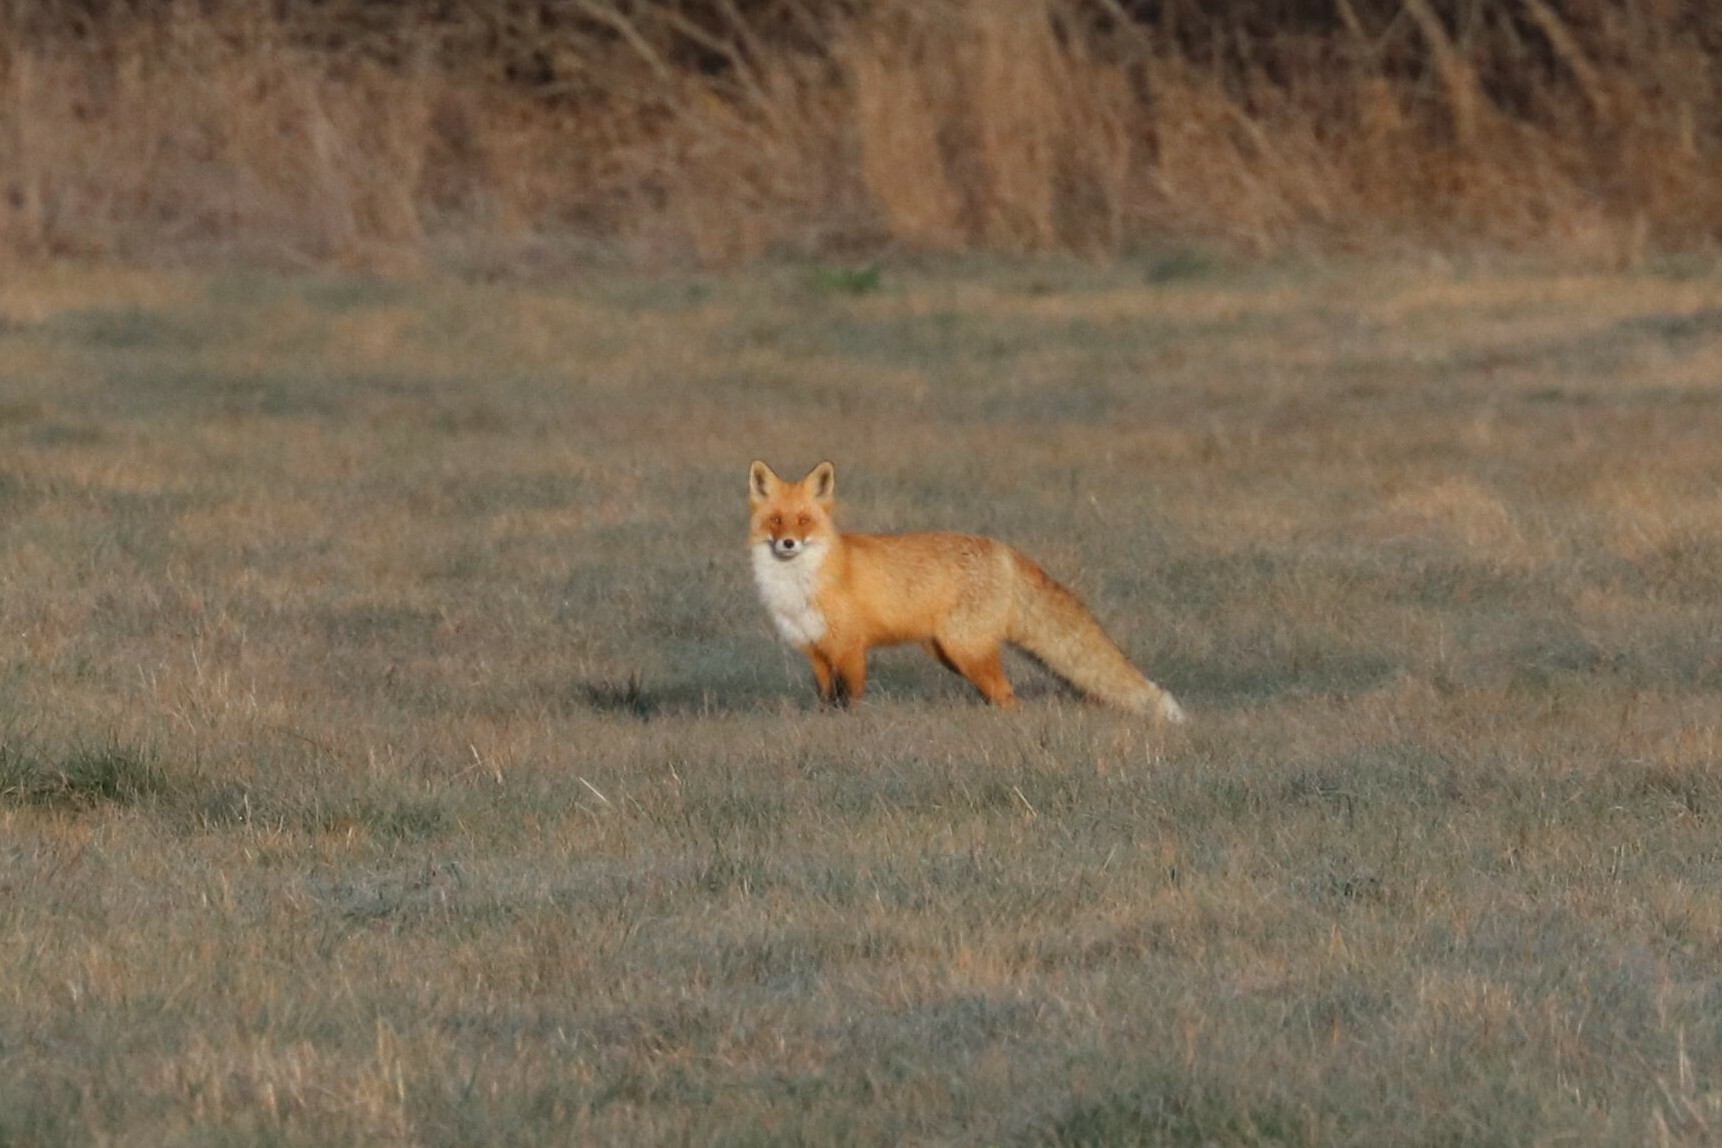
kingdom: Animalia
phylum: Chordata
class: Mammalia
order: Carnivora
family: Canidae
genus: Vulpes
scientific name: Vulpes vulpes
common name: Red fox
